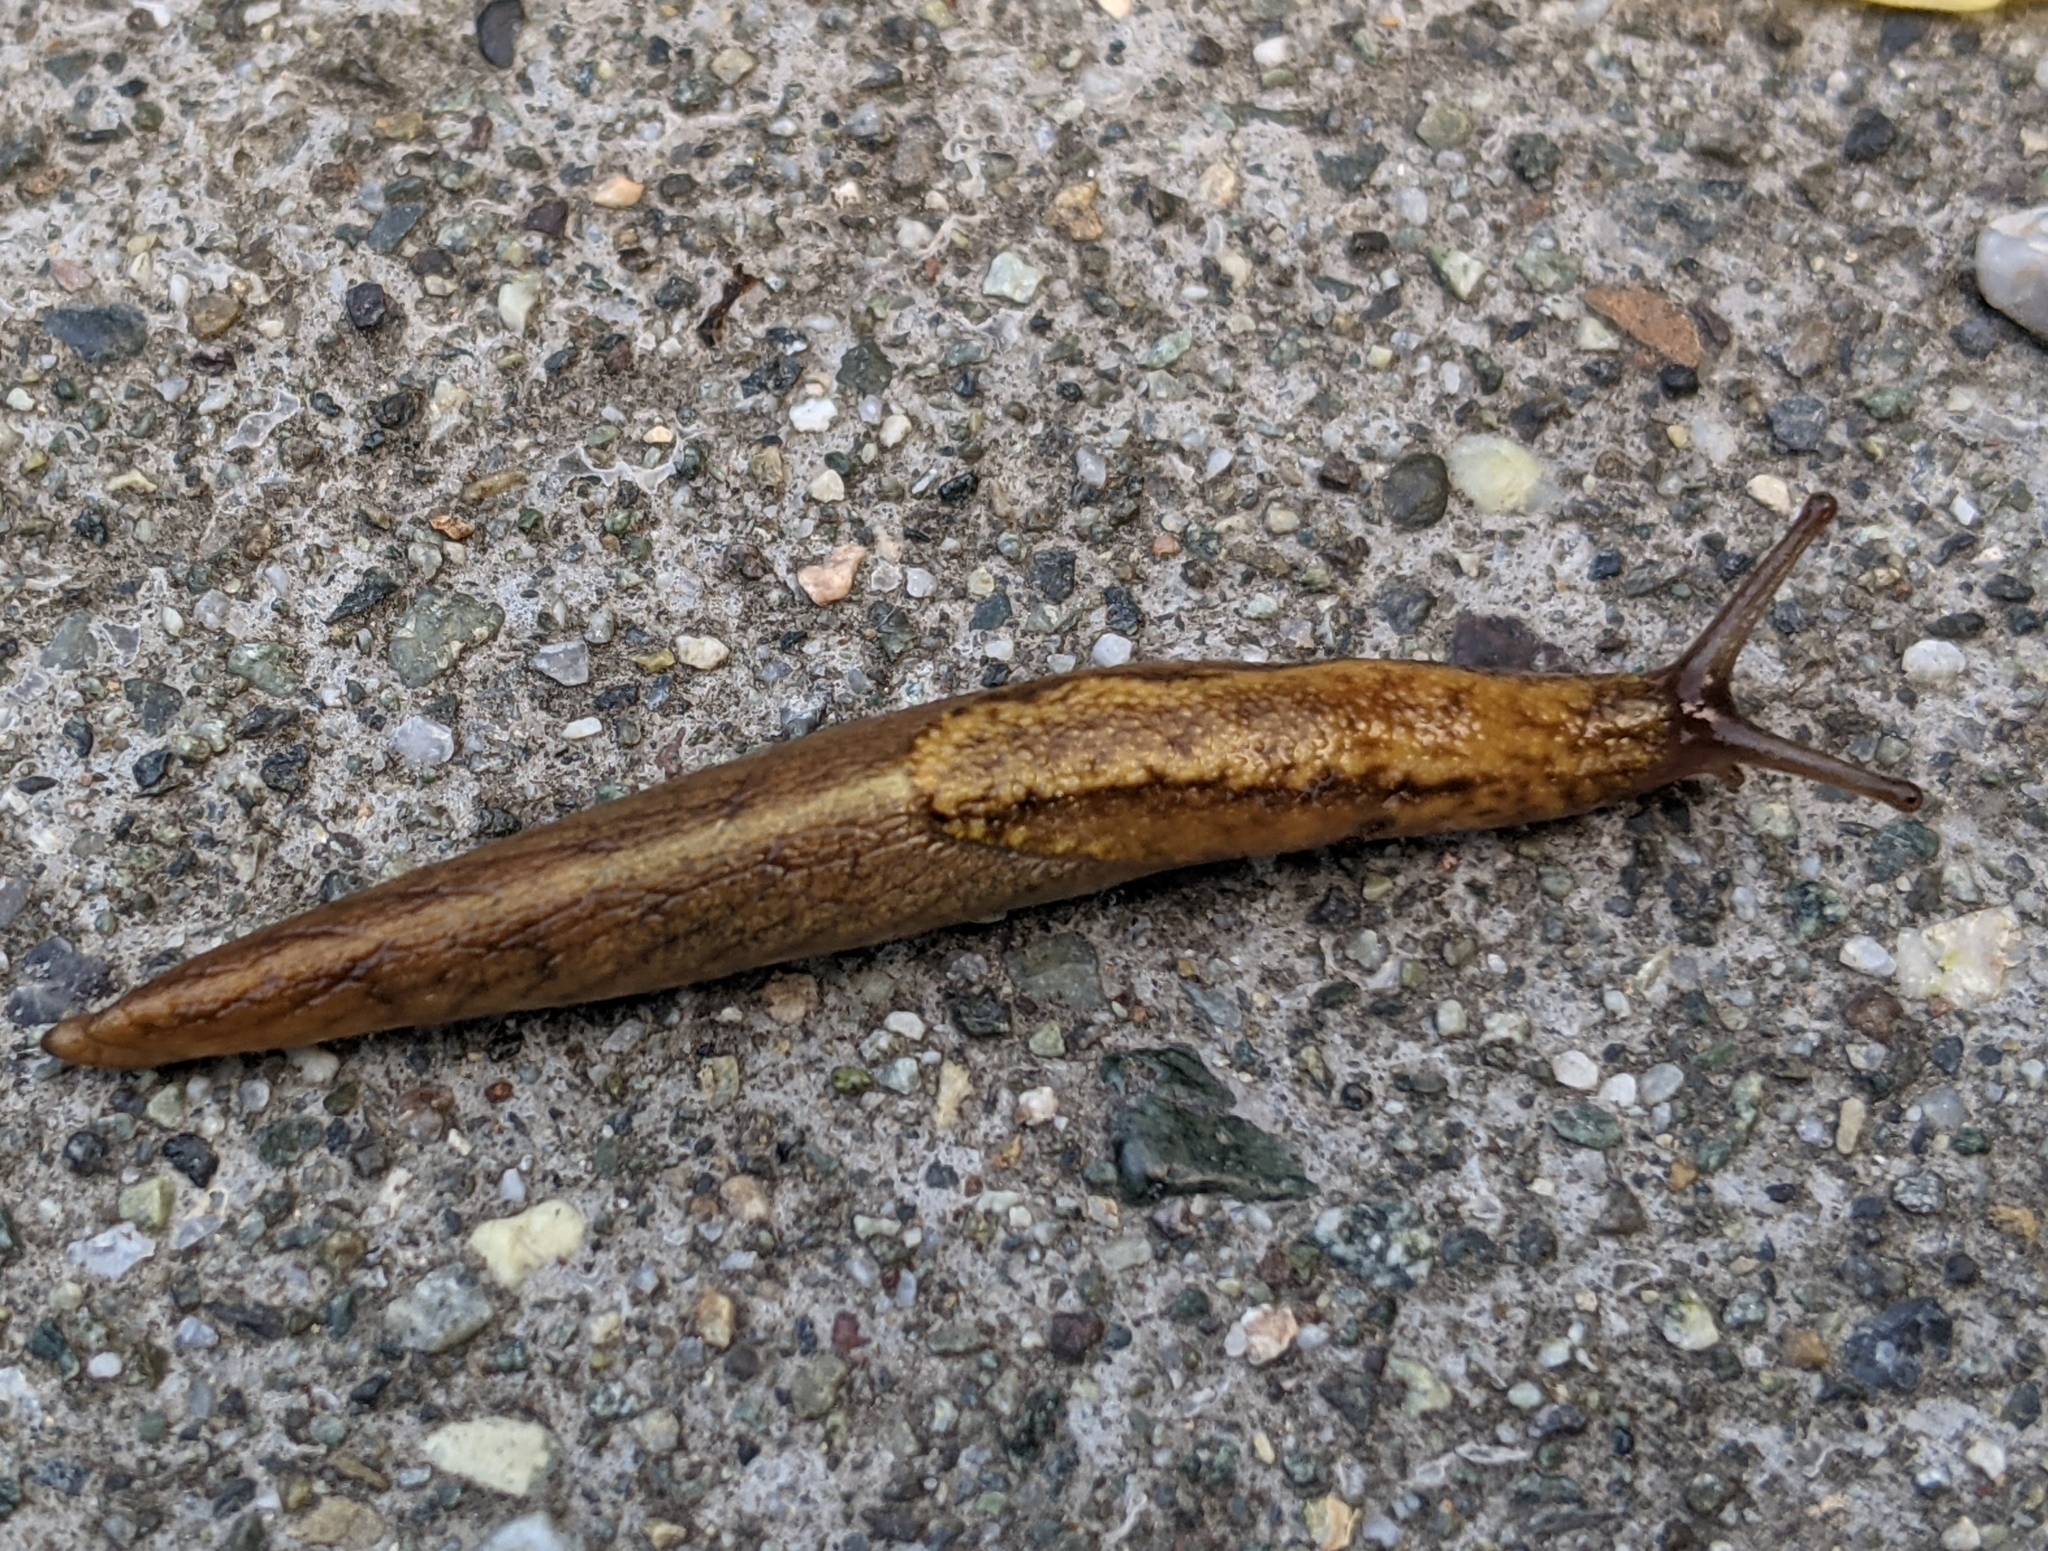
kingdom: Animalia
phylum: Mollusca
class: Gastropoda
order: Stylommatophora
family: Ariolimacidae
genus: Prophysaon
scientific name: Prophysaon andersonii
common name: Reticulate taildropper
